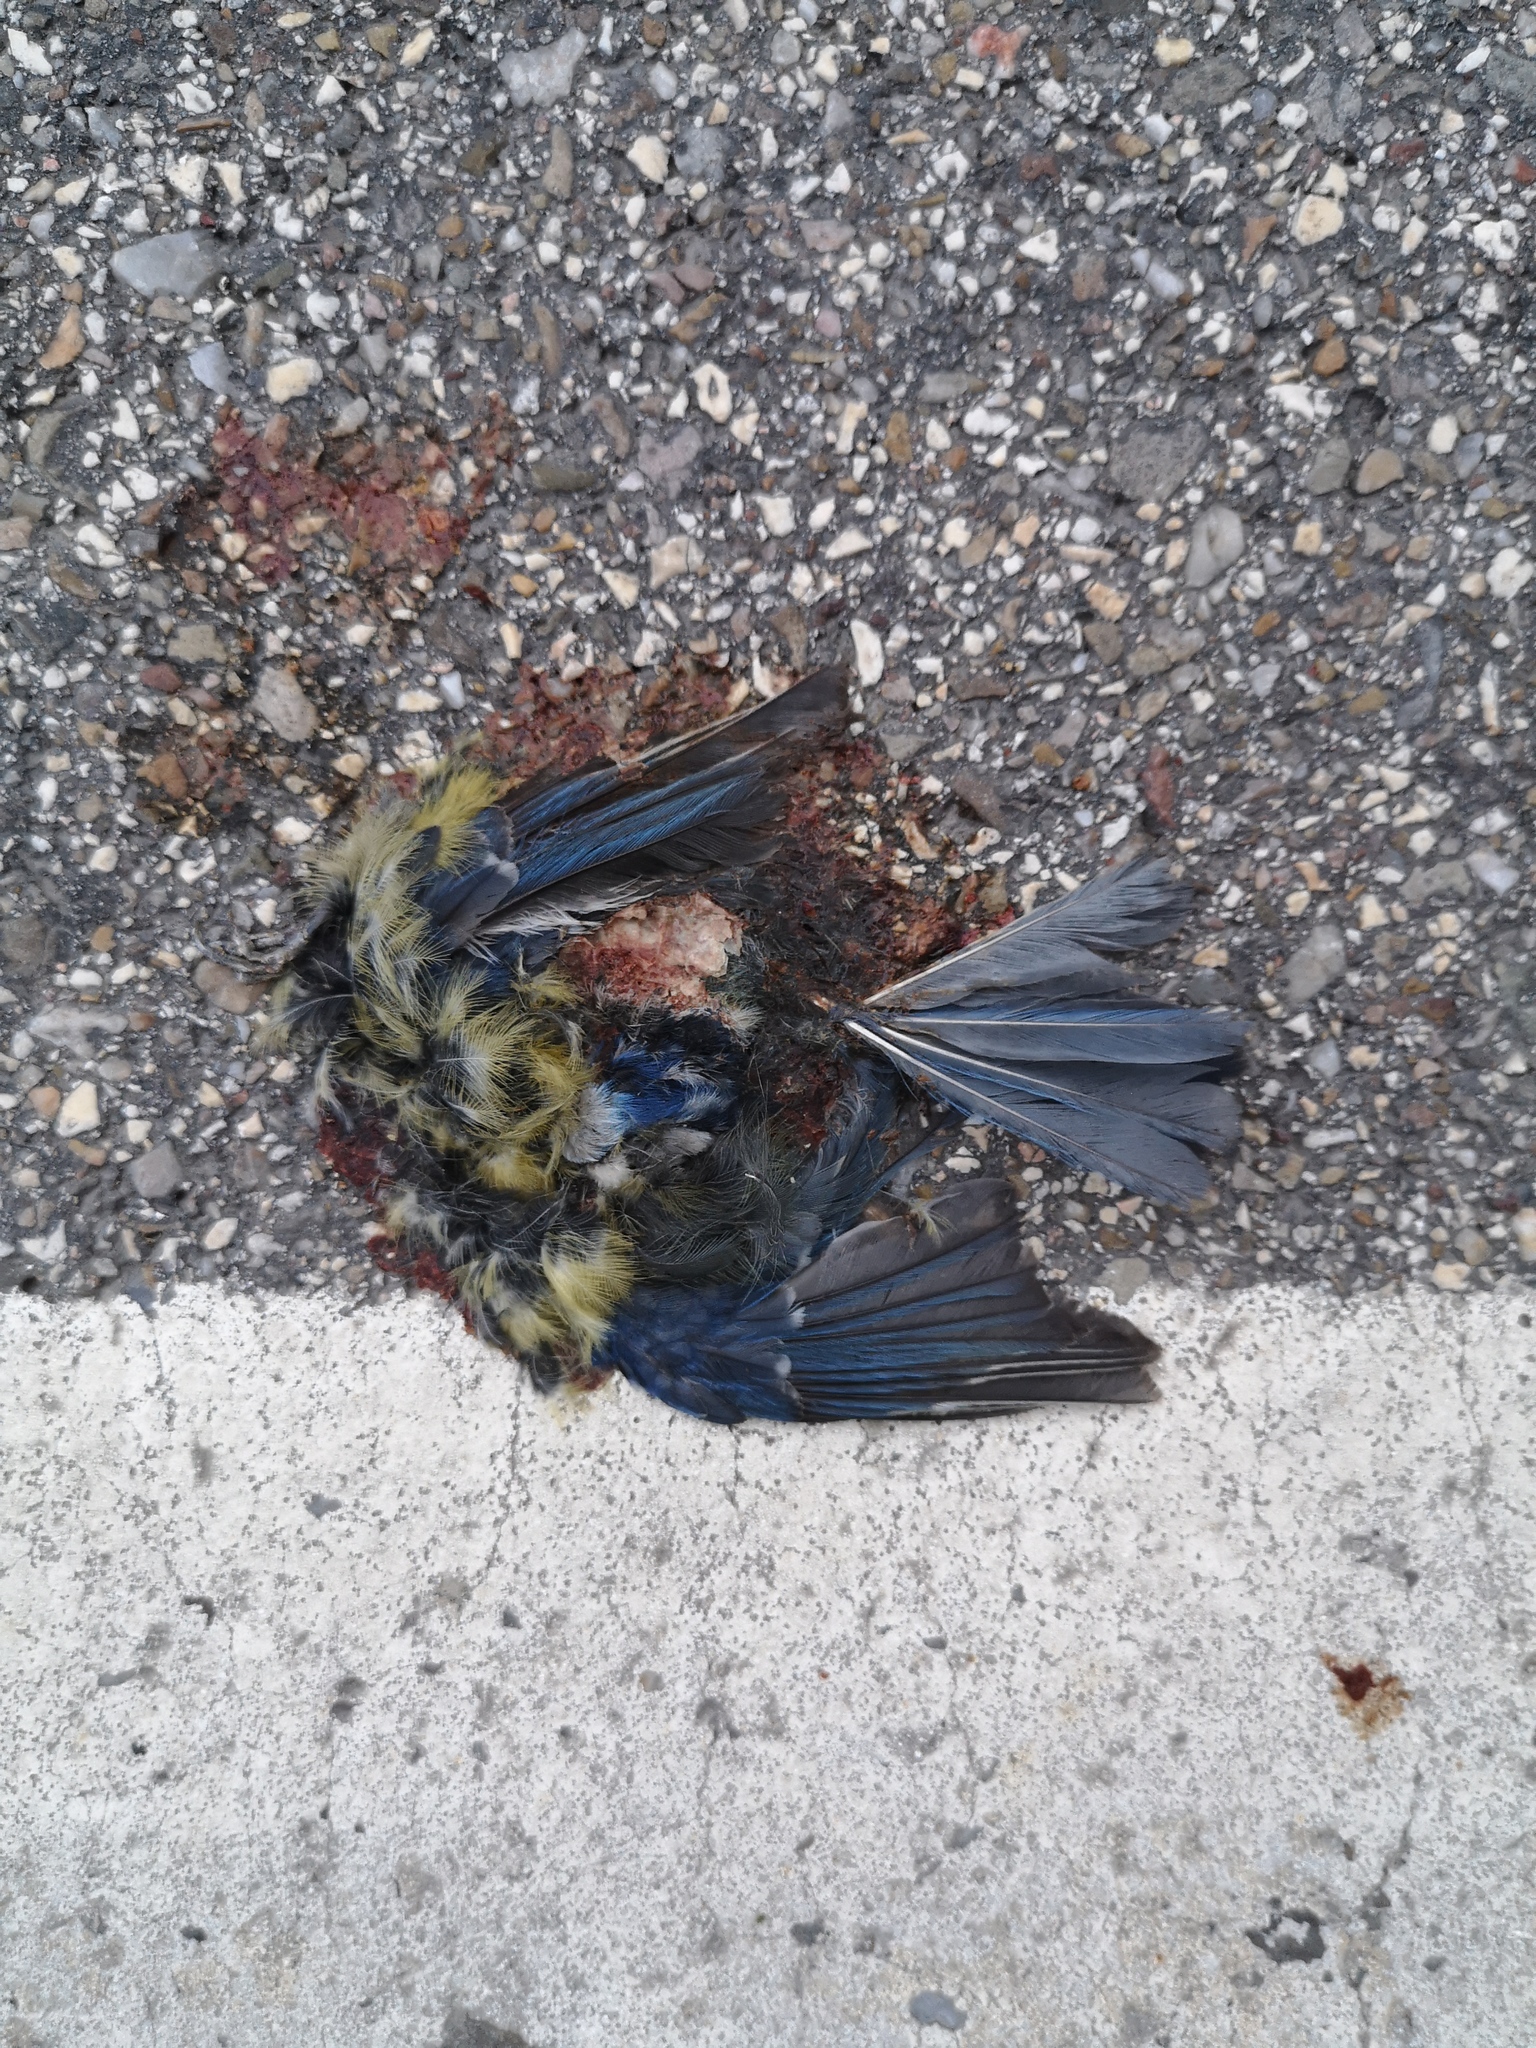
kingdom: Animalia
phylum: Chordata
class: Aves
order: Passeriformes
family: Paridae
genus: Cyanistes
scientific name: Cyanistes caeruleus
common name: Eurasian blue tit
